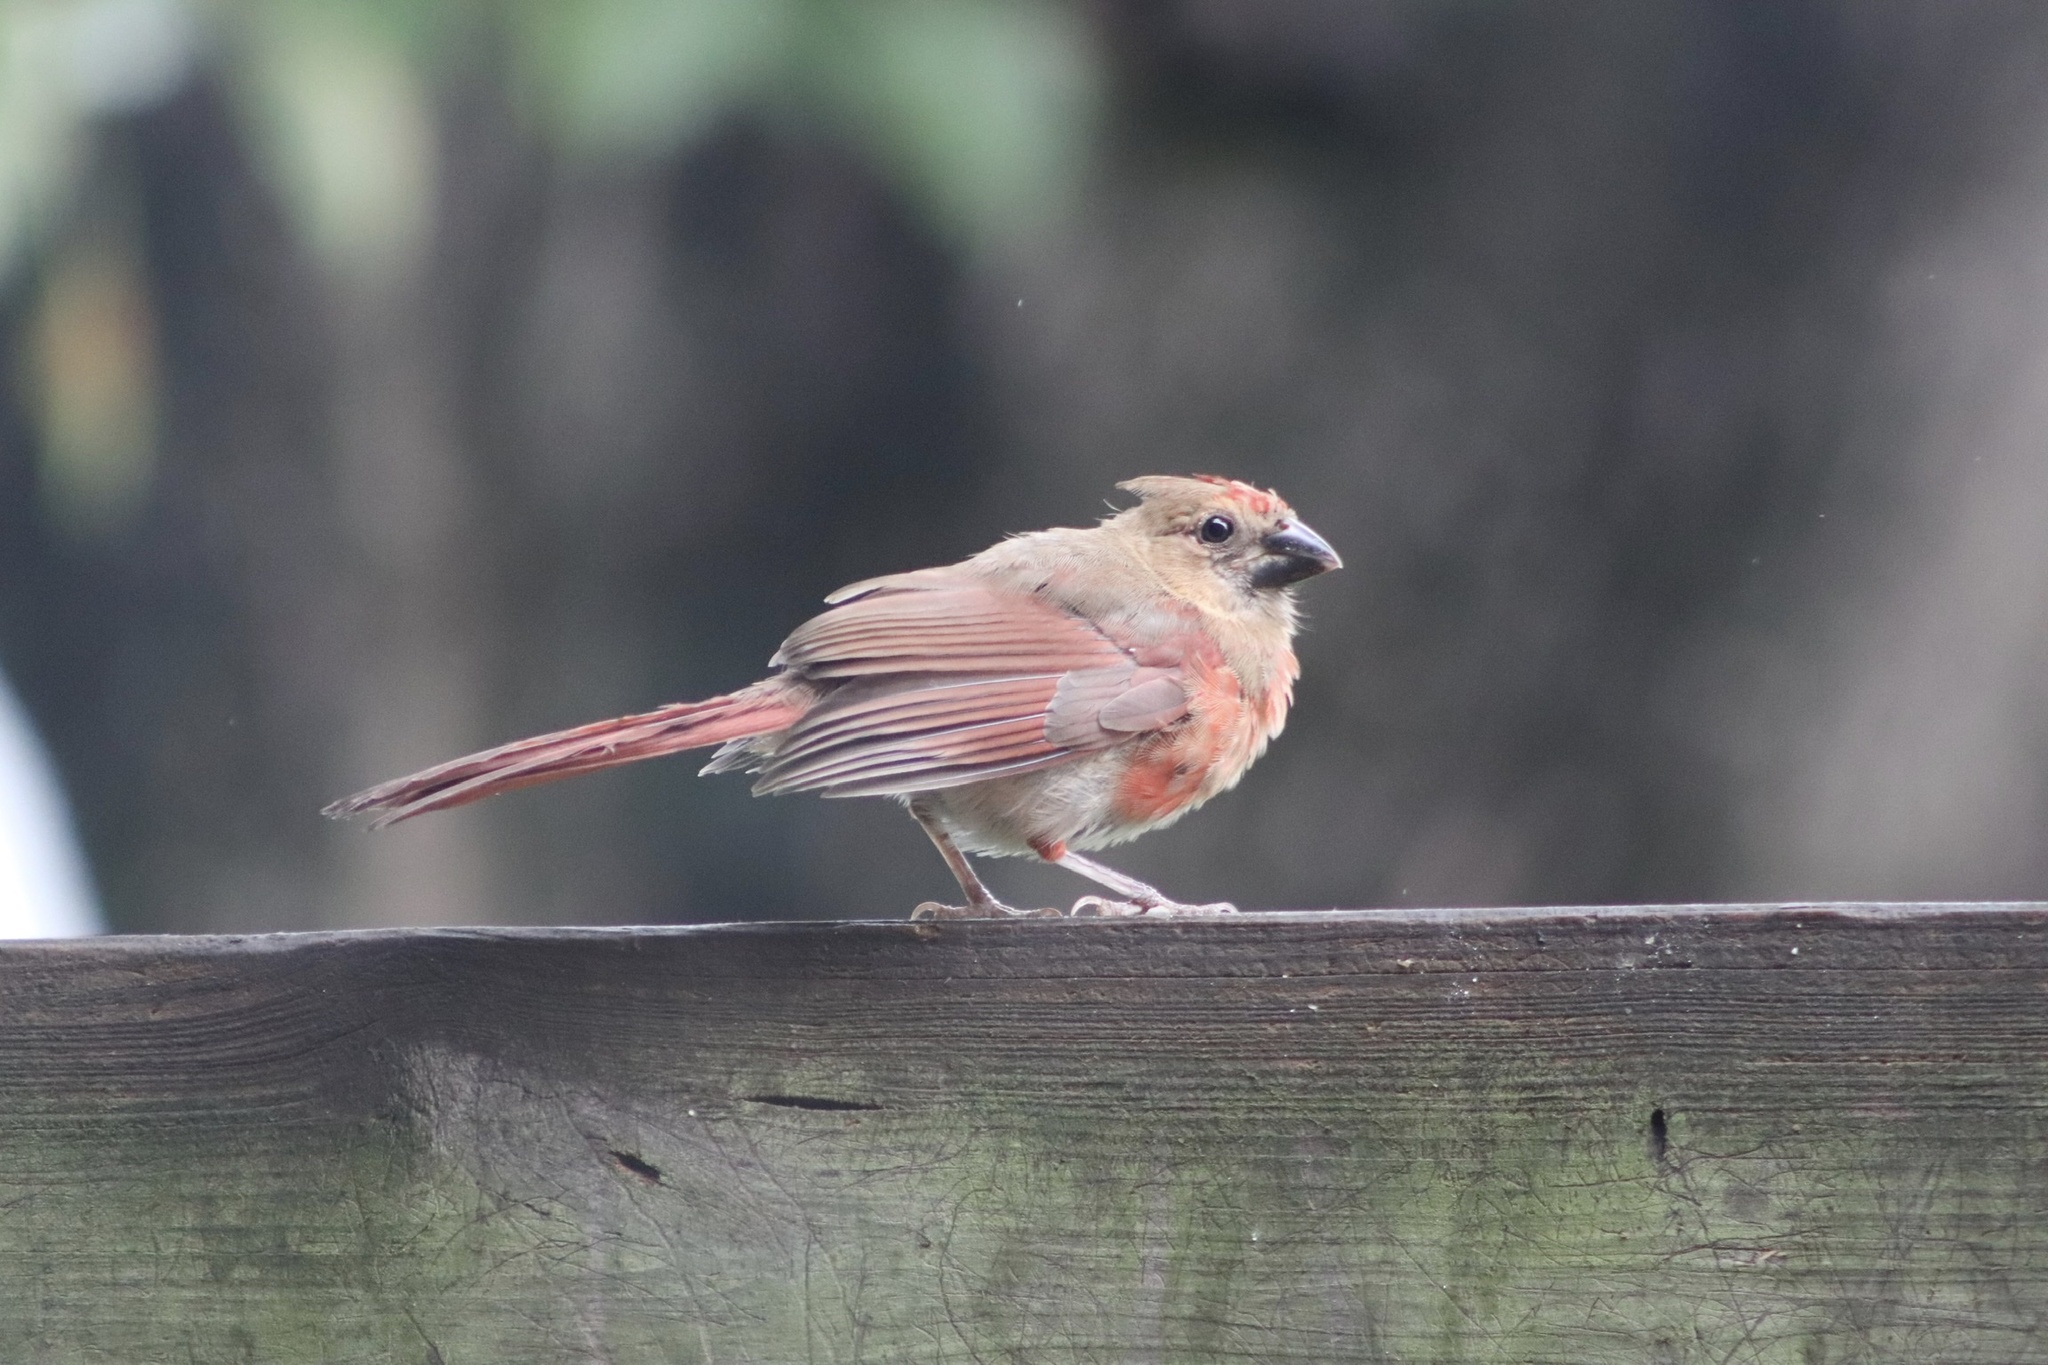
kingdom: Animalia
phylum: Chordata
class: Aves
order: Passeriformes
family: Cardinalidae
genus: Cardinalis
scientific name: Cardinalis cardinalis
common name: Northern cardinal
